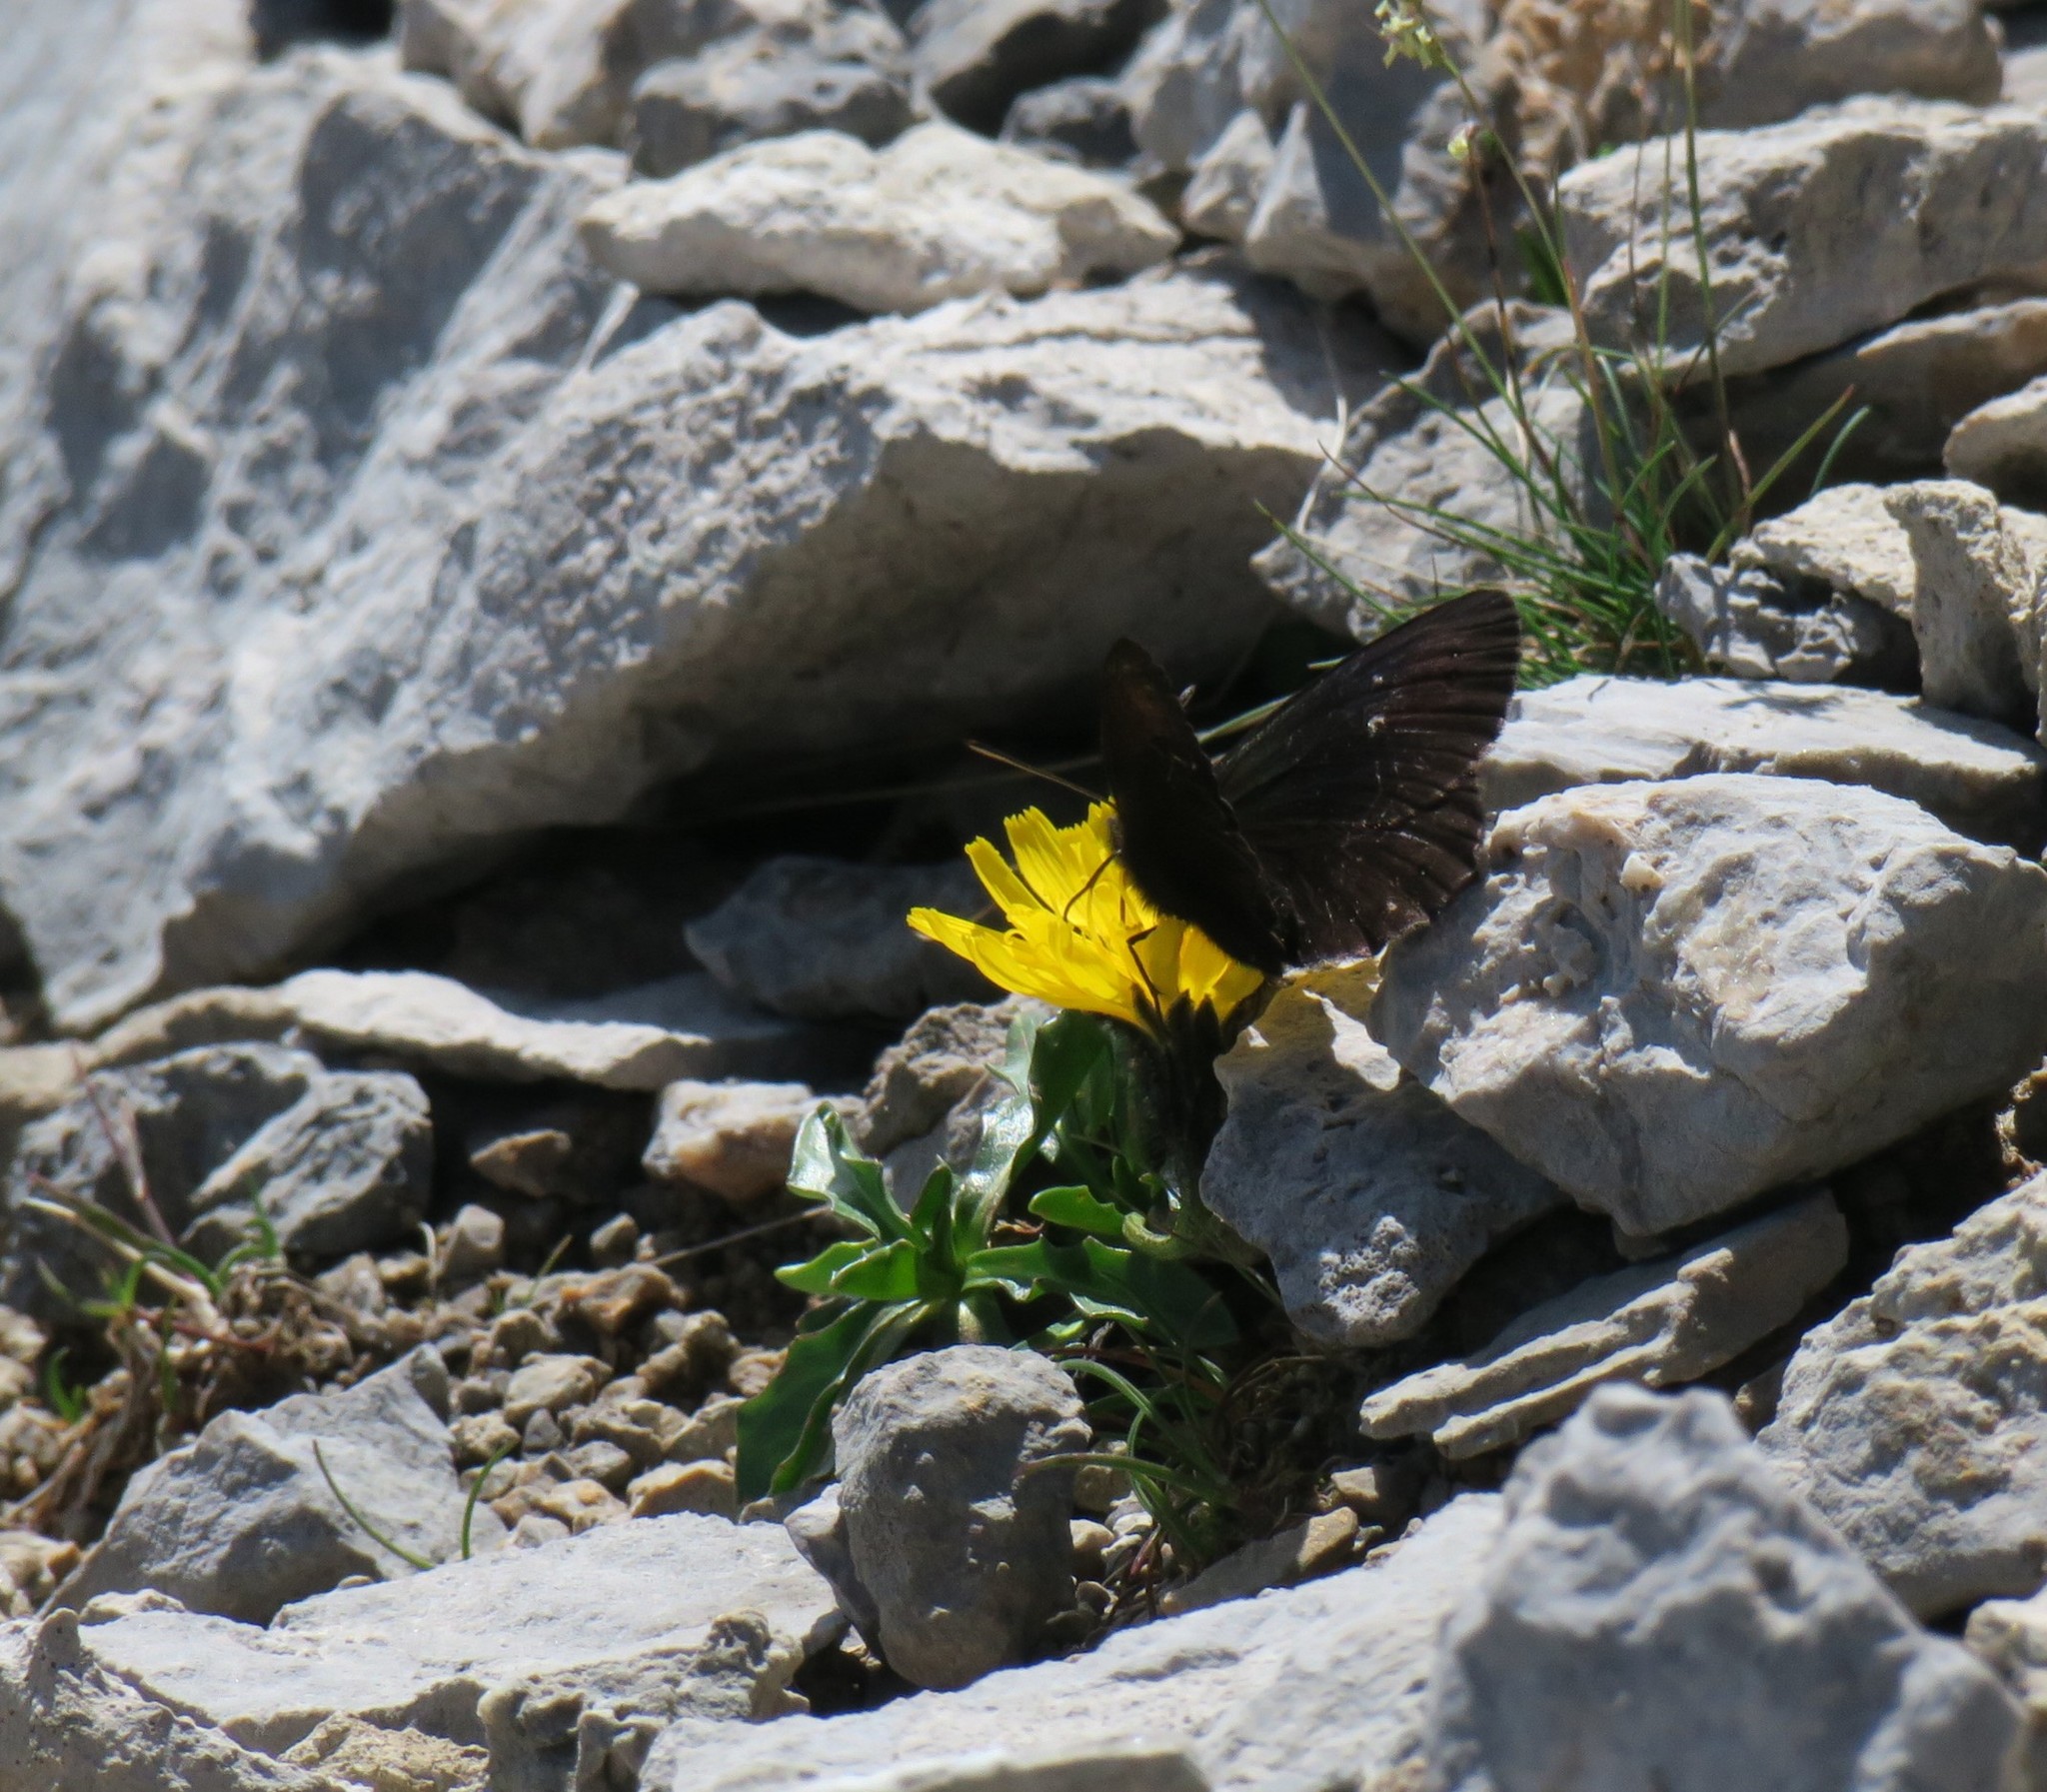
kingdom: Animalia
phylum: Arthropoda
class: Insecta
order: Lepidoptera
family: Nymphalidae
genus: Erebia
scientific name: Erebia pluto
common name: Sooty ringlet
